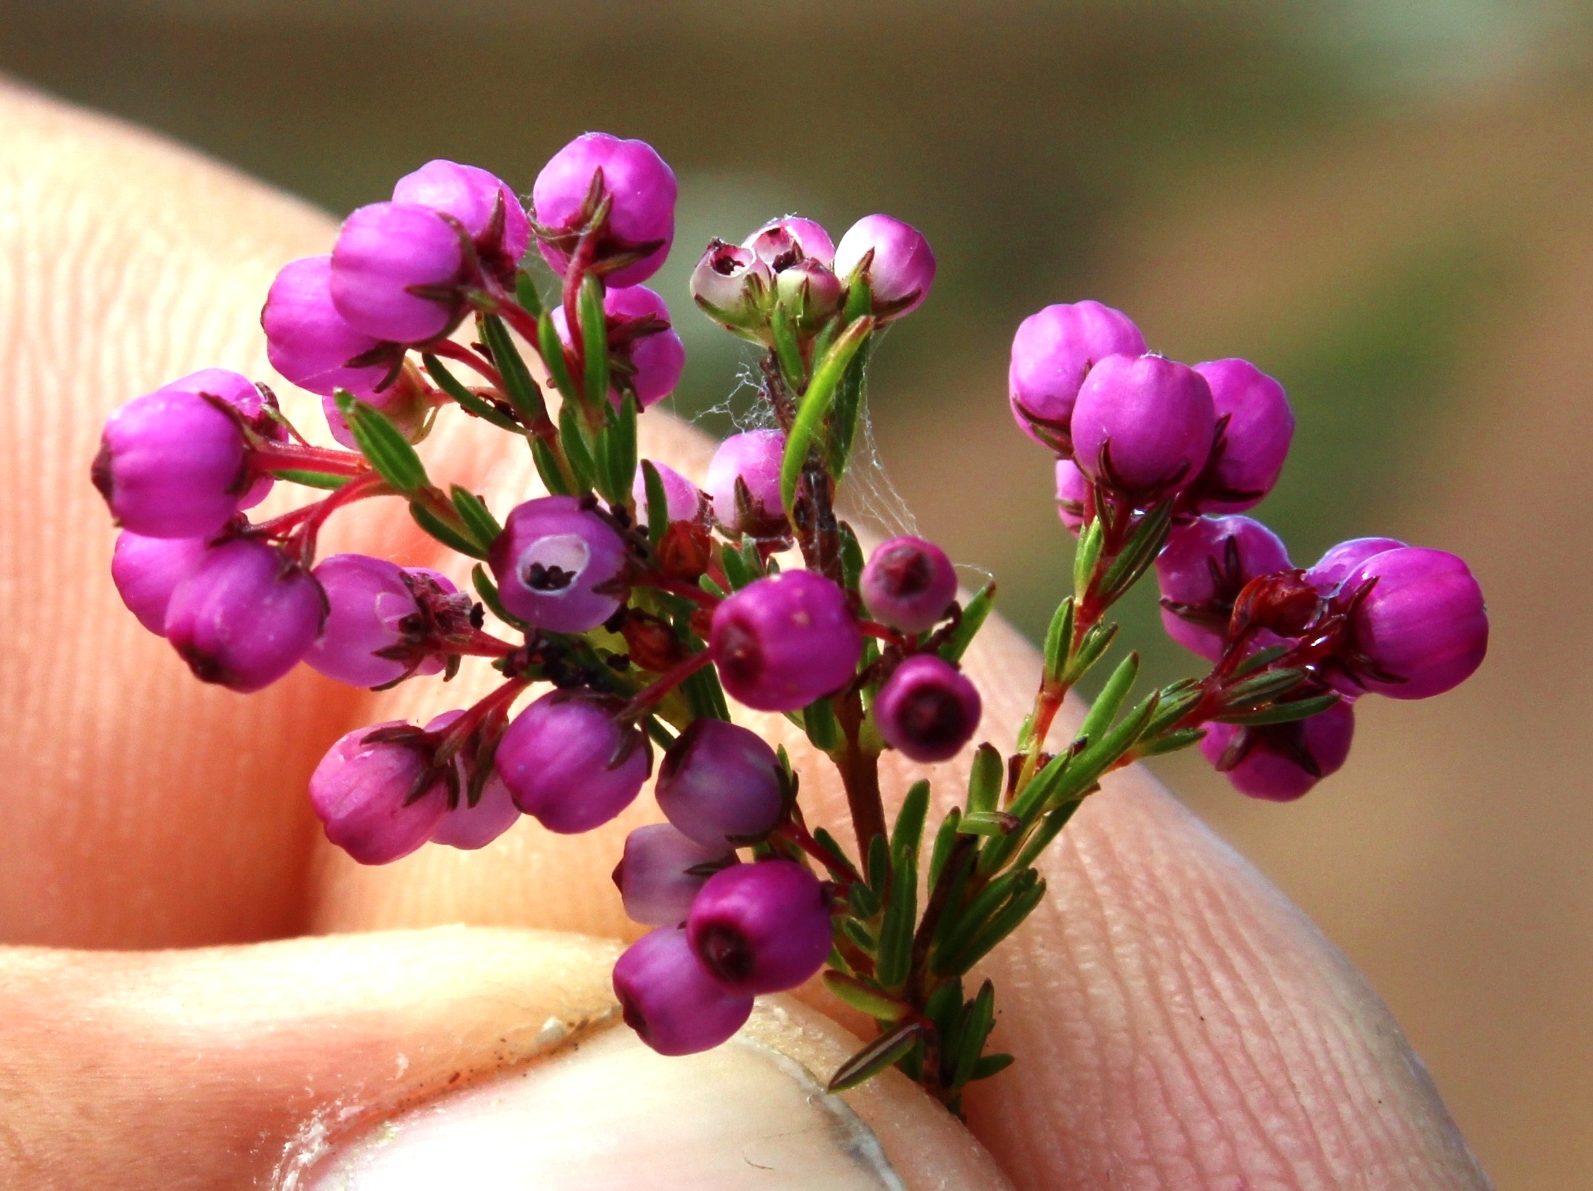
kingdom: Plantae
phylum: Tracheophyta
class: Magnoliopsida
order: Ericales
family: Ericaceae
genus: Erica
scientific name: Erica multumbellifera
